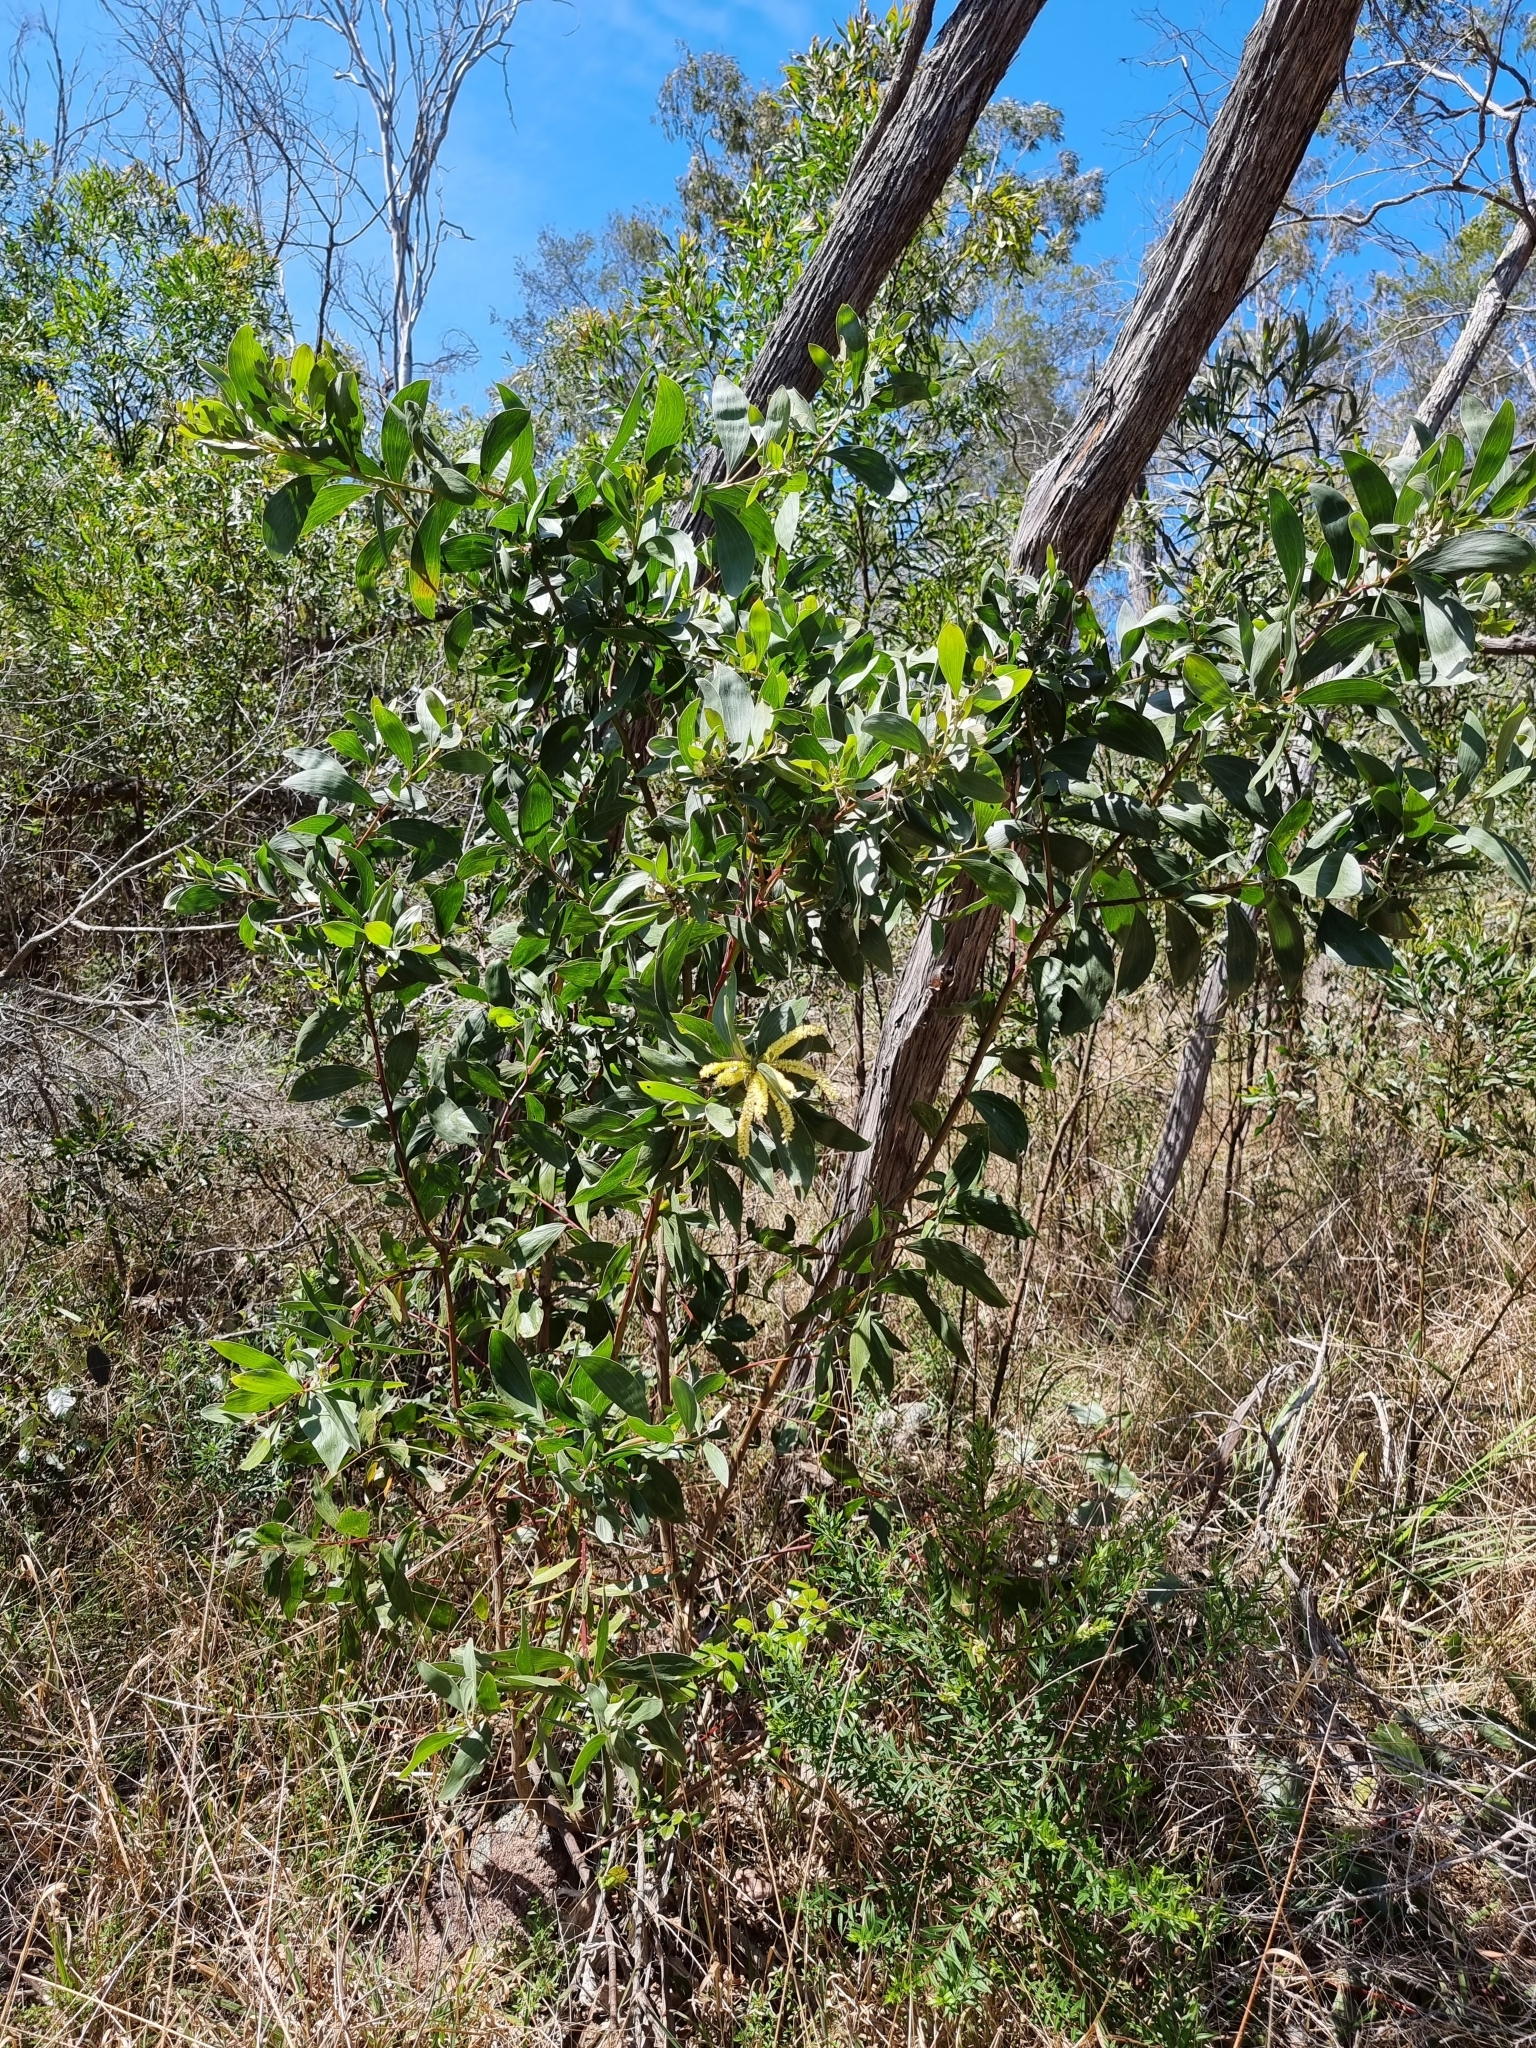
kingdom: Plantae
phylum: Tracheophyta
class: Magnoliopsida
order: Fabales
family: Fabaceae
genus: Acacia
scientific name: Acacia leiocalyx
